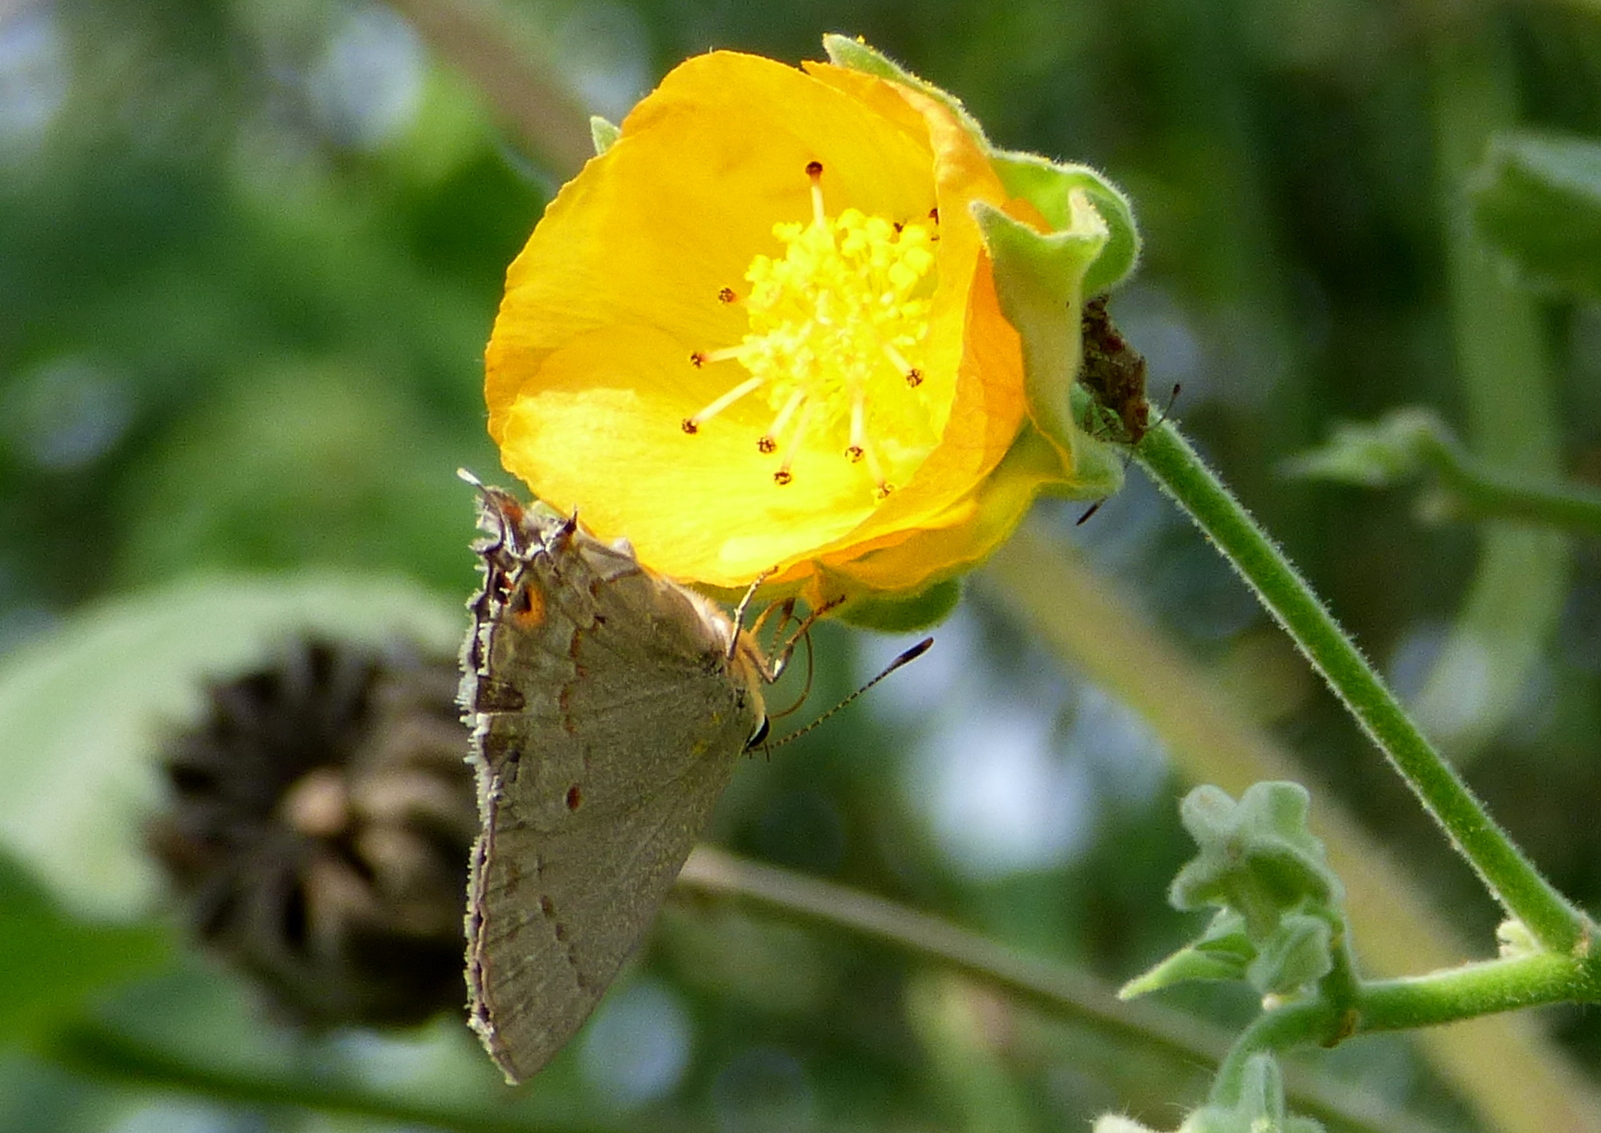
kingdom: Animalia
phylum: Arthropoda
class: Insecta
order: Lepidoptera
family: Lycaenidae
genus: Thecla
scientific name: Thecla rufofusca
